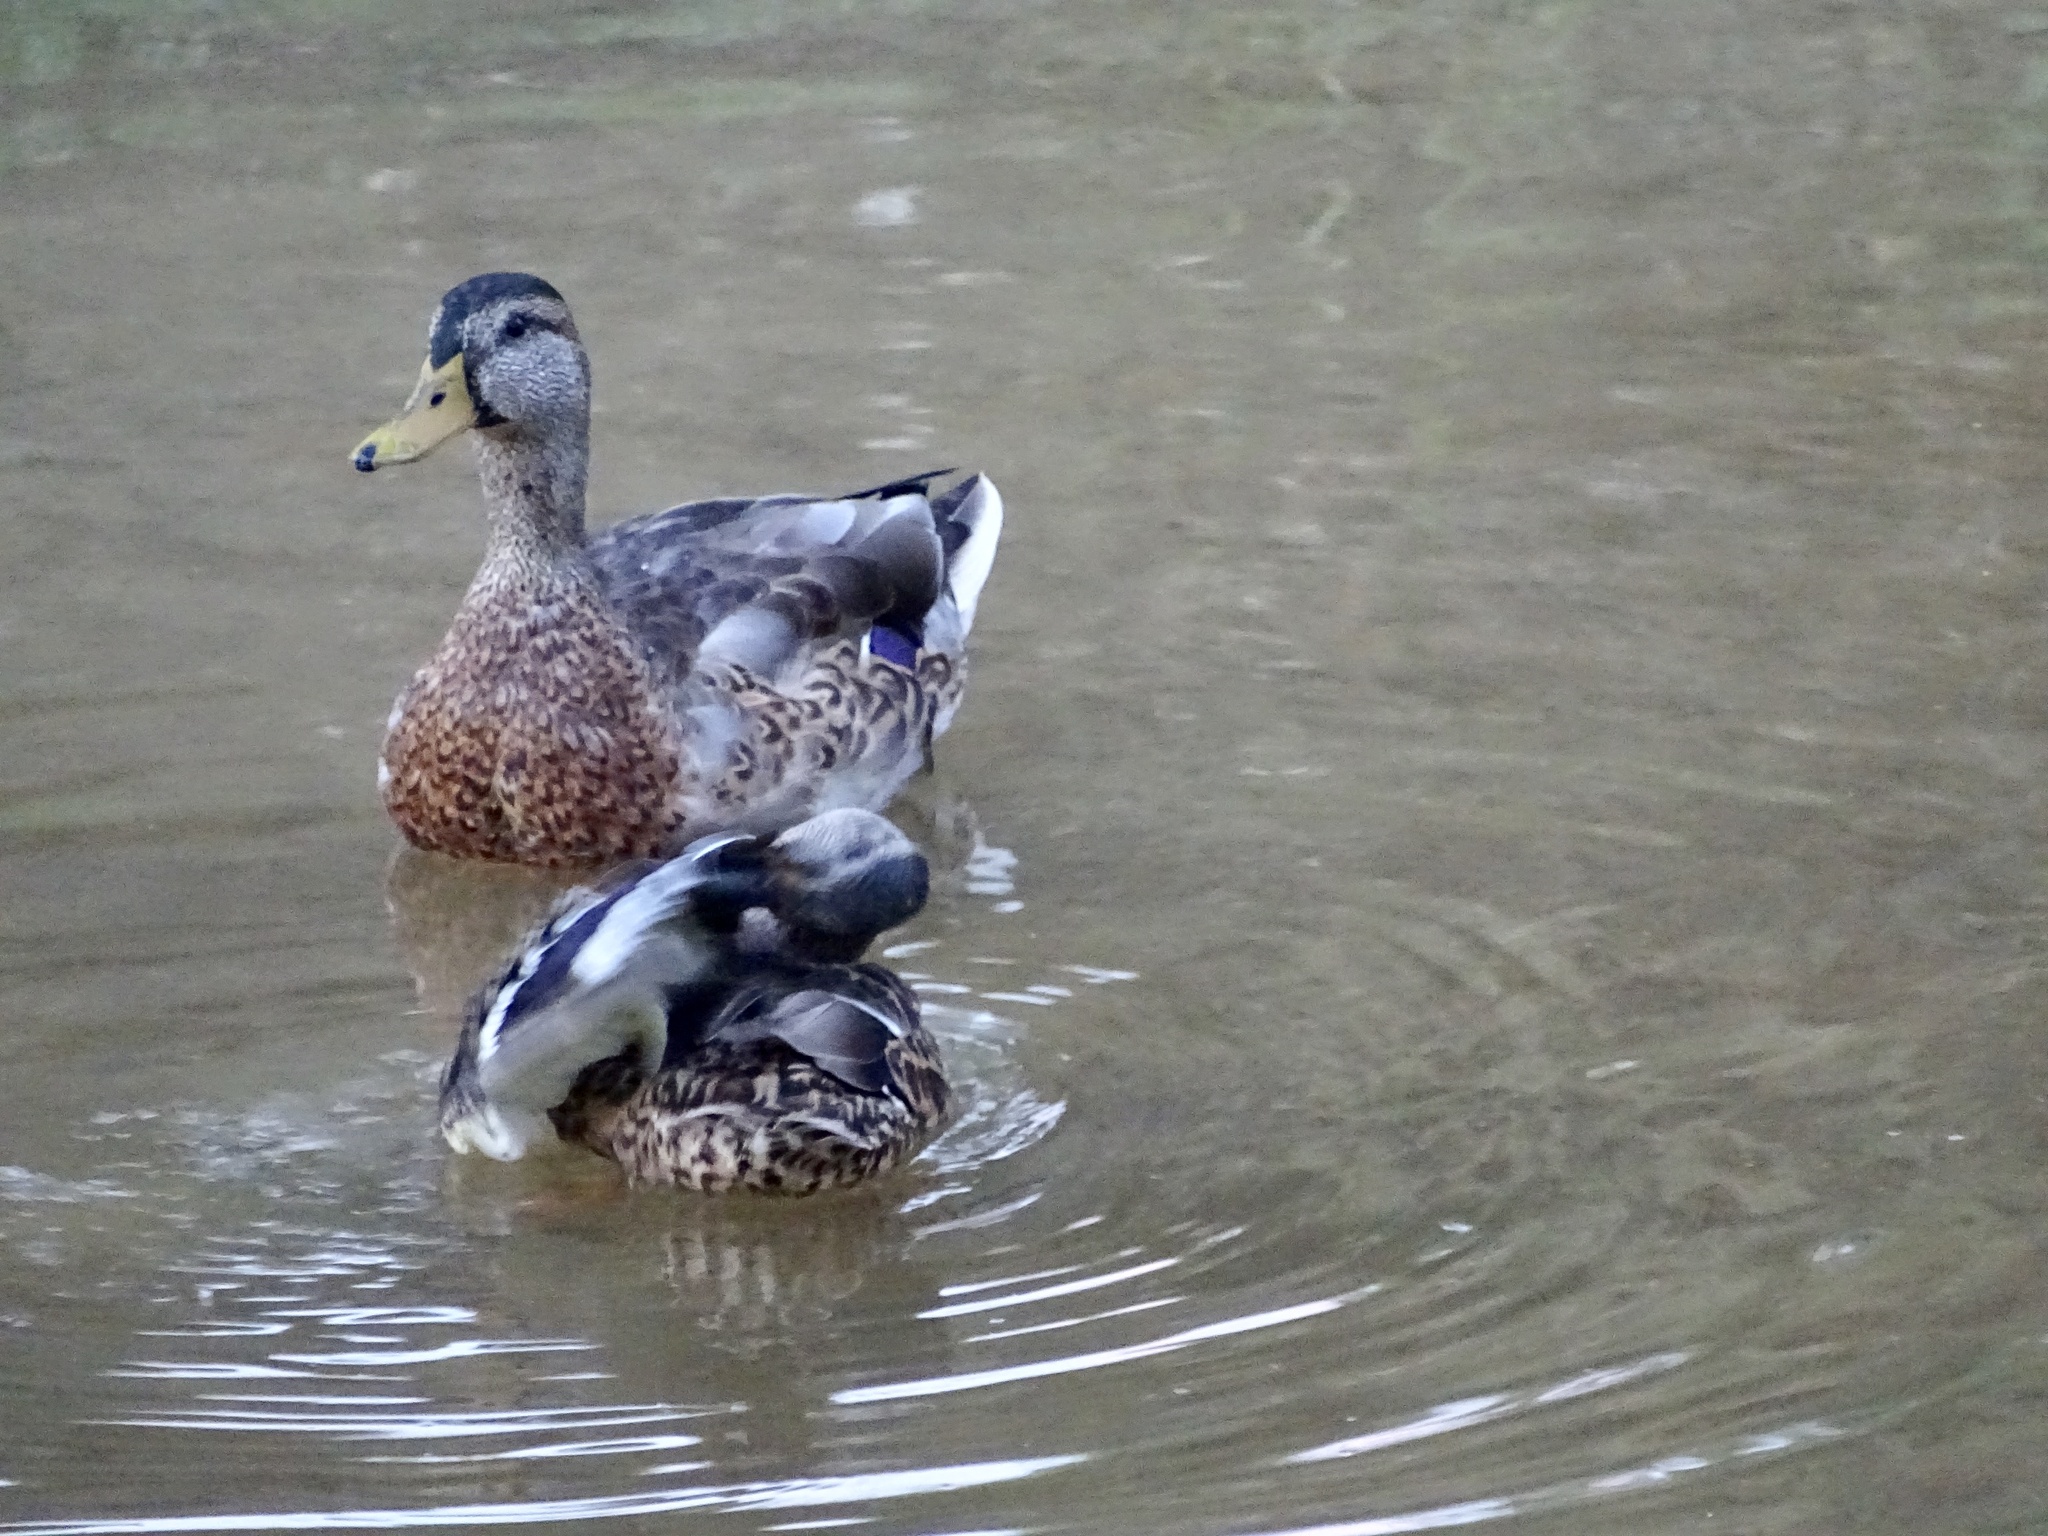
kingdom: Animalia
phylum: Chordata
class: Aves
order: Anseriformes
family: Anatidae
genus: Anas
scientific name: Anas platyrhynchos
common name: Mallard
